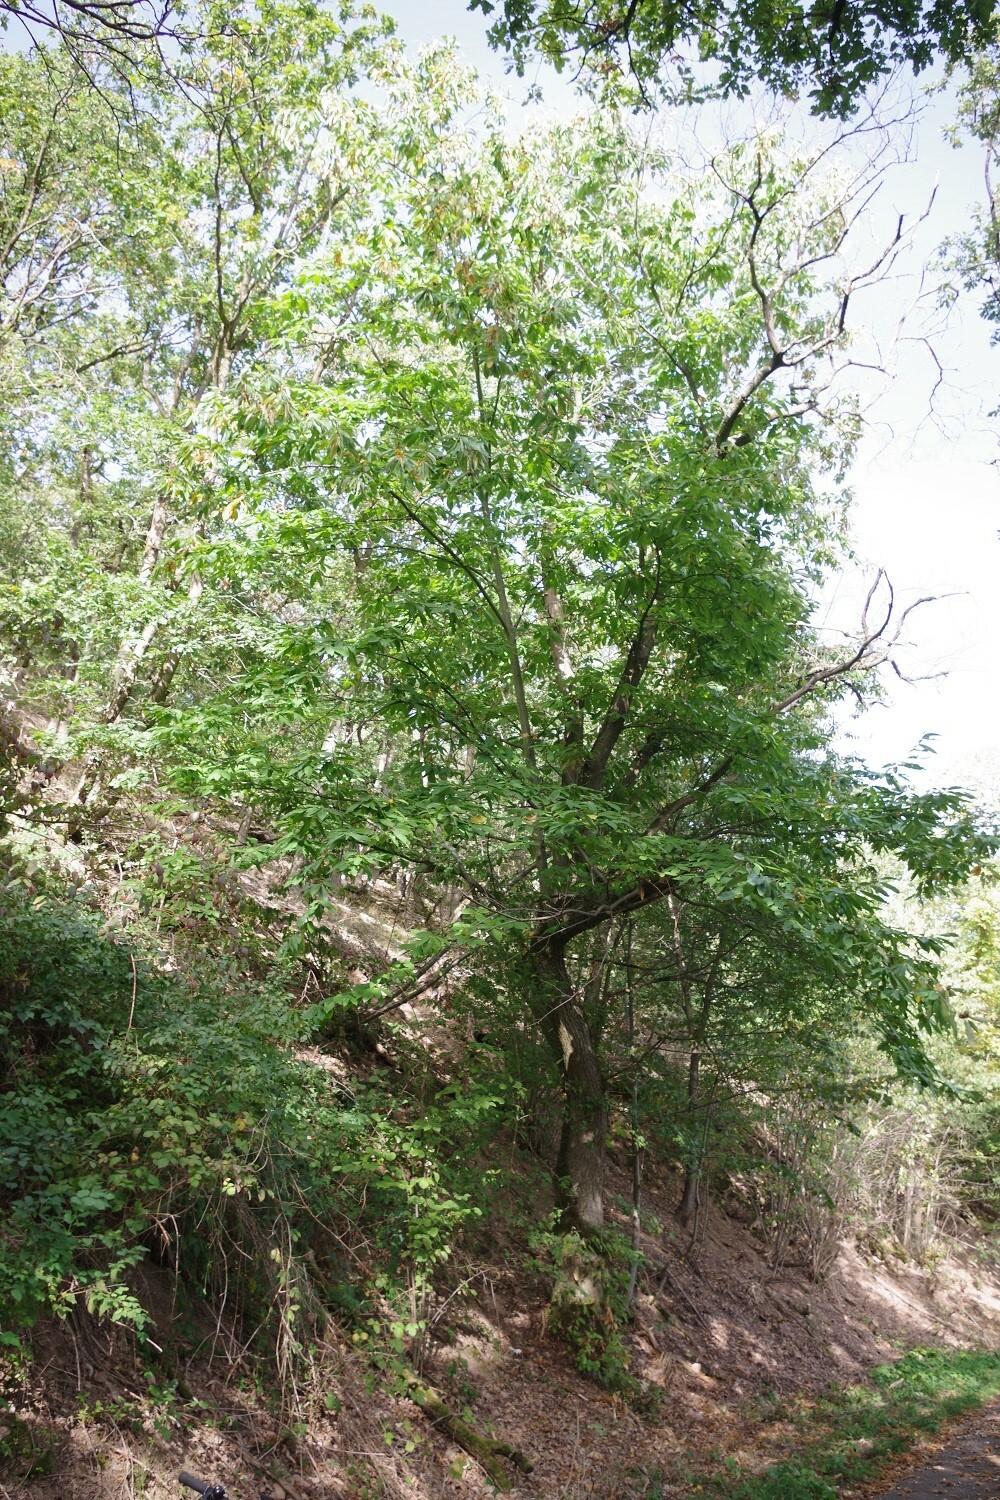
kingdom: Plantae
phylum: Tracheophyta
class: Magnoliopsida
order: Fagales
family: Fagaceae
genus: Castanea
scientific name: Castanea sativa
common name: Sweet chestnut
